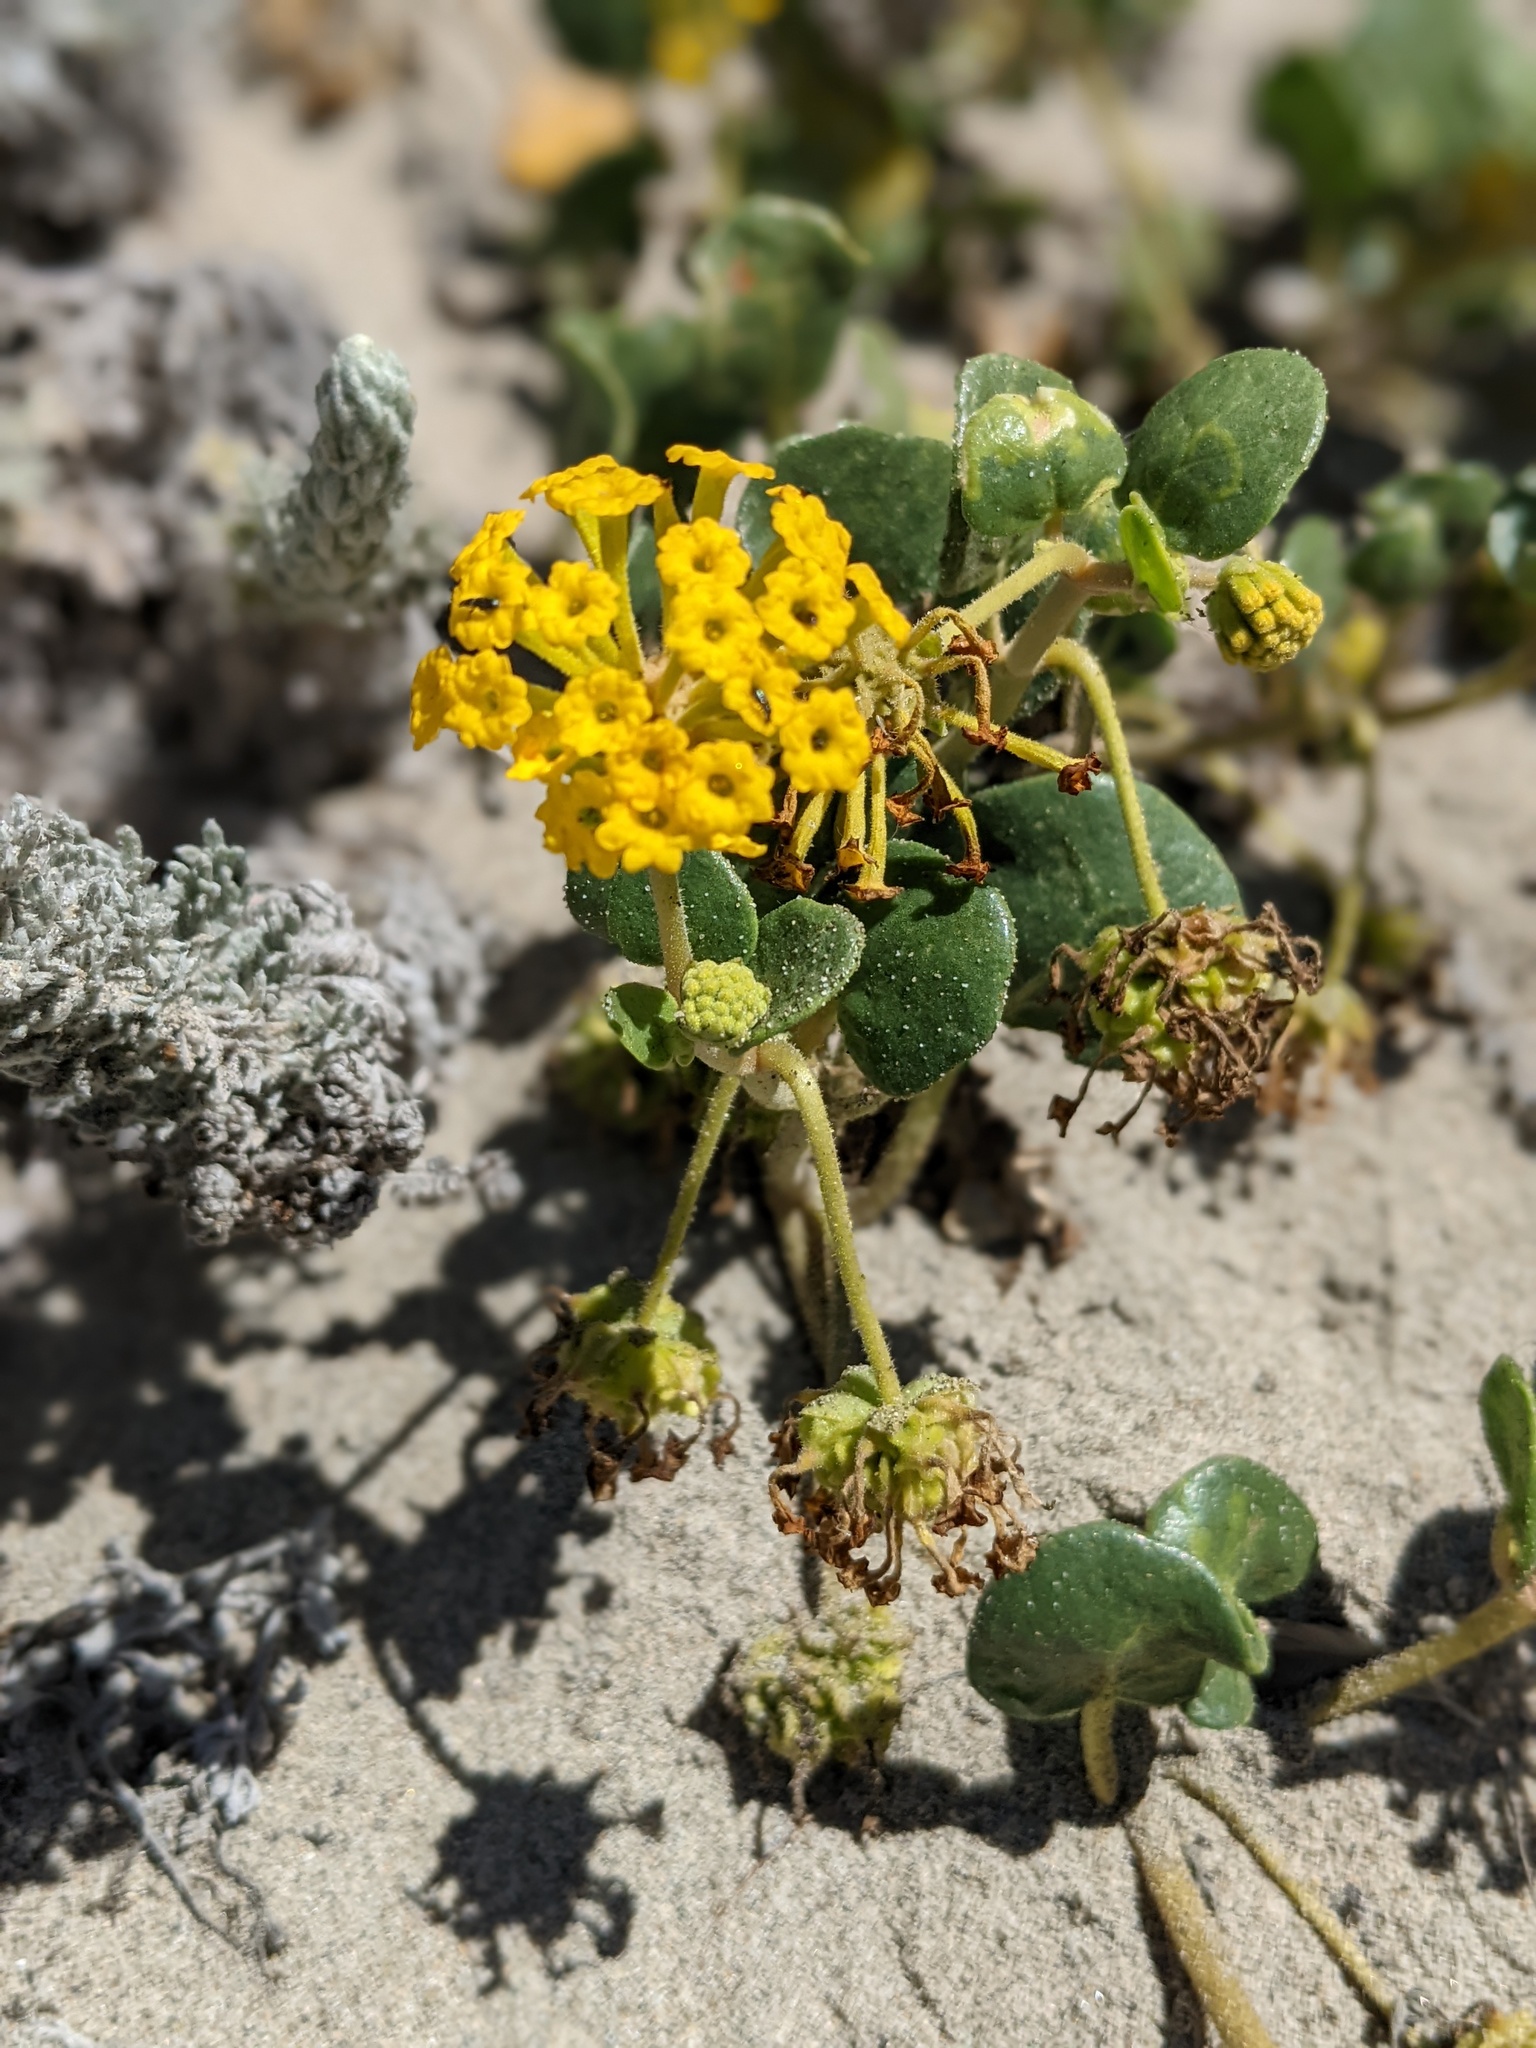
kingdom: Plantae
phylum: Tracheophyta
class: Magnoliopsida
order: Caryophyllales
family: Nyctaginaceae
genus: Abronia
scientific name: Abronia latifolia
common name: Yellow sand-verbena
